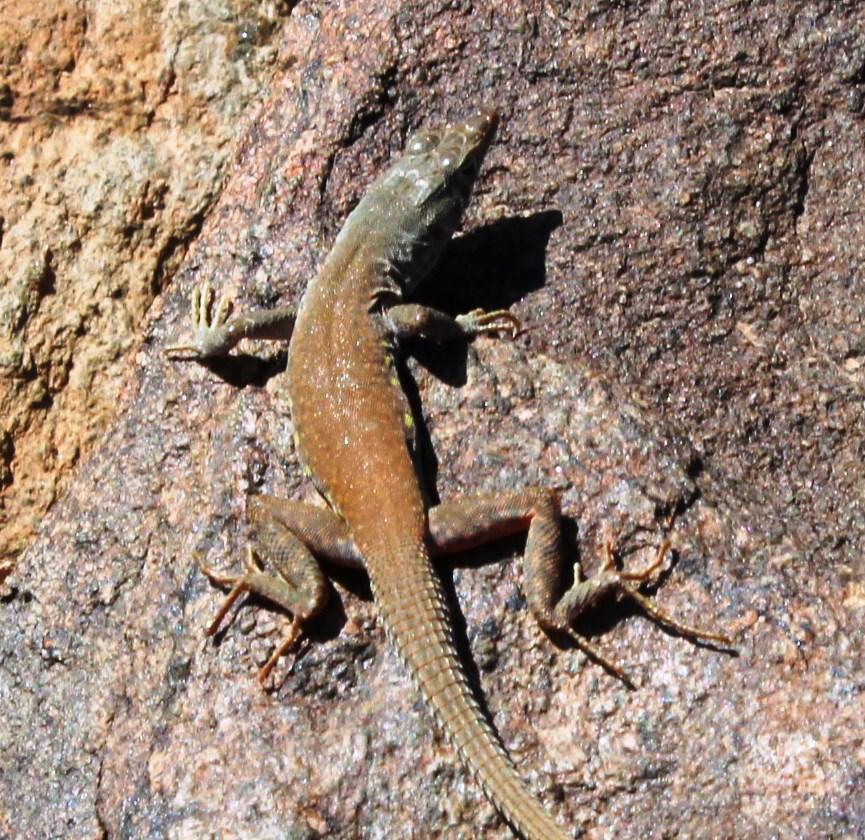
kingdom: Animalia
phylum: Chordata
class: Squamata
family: Lacertidae
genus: Pedioplanis
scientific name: Pedioplanis inornata
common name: Plain sand lizard
